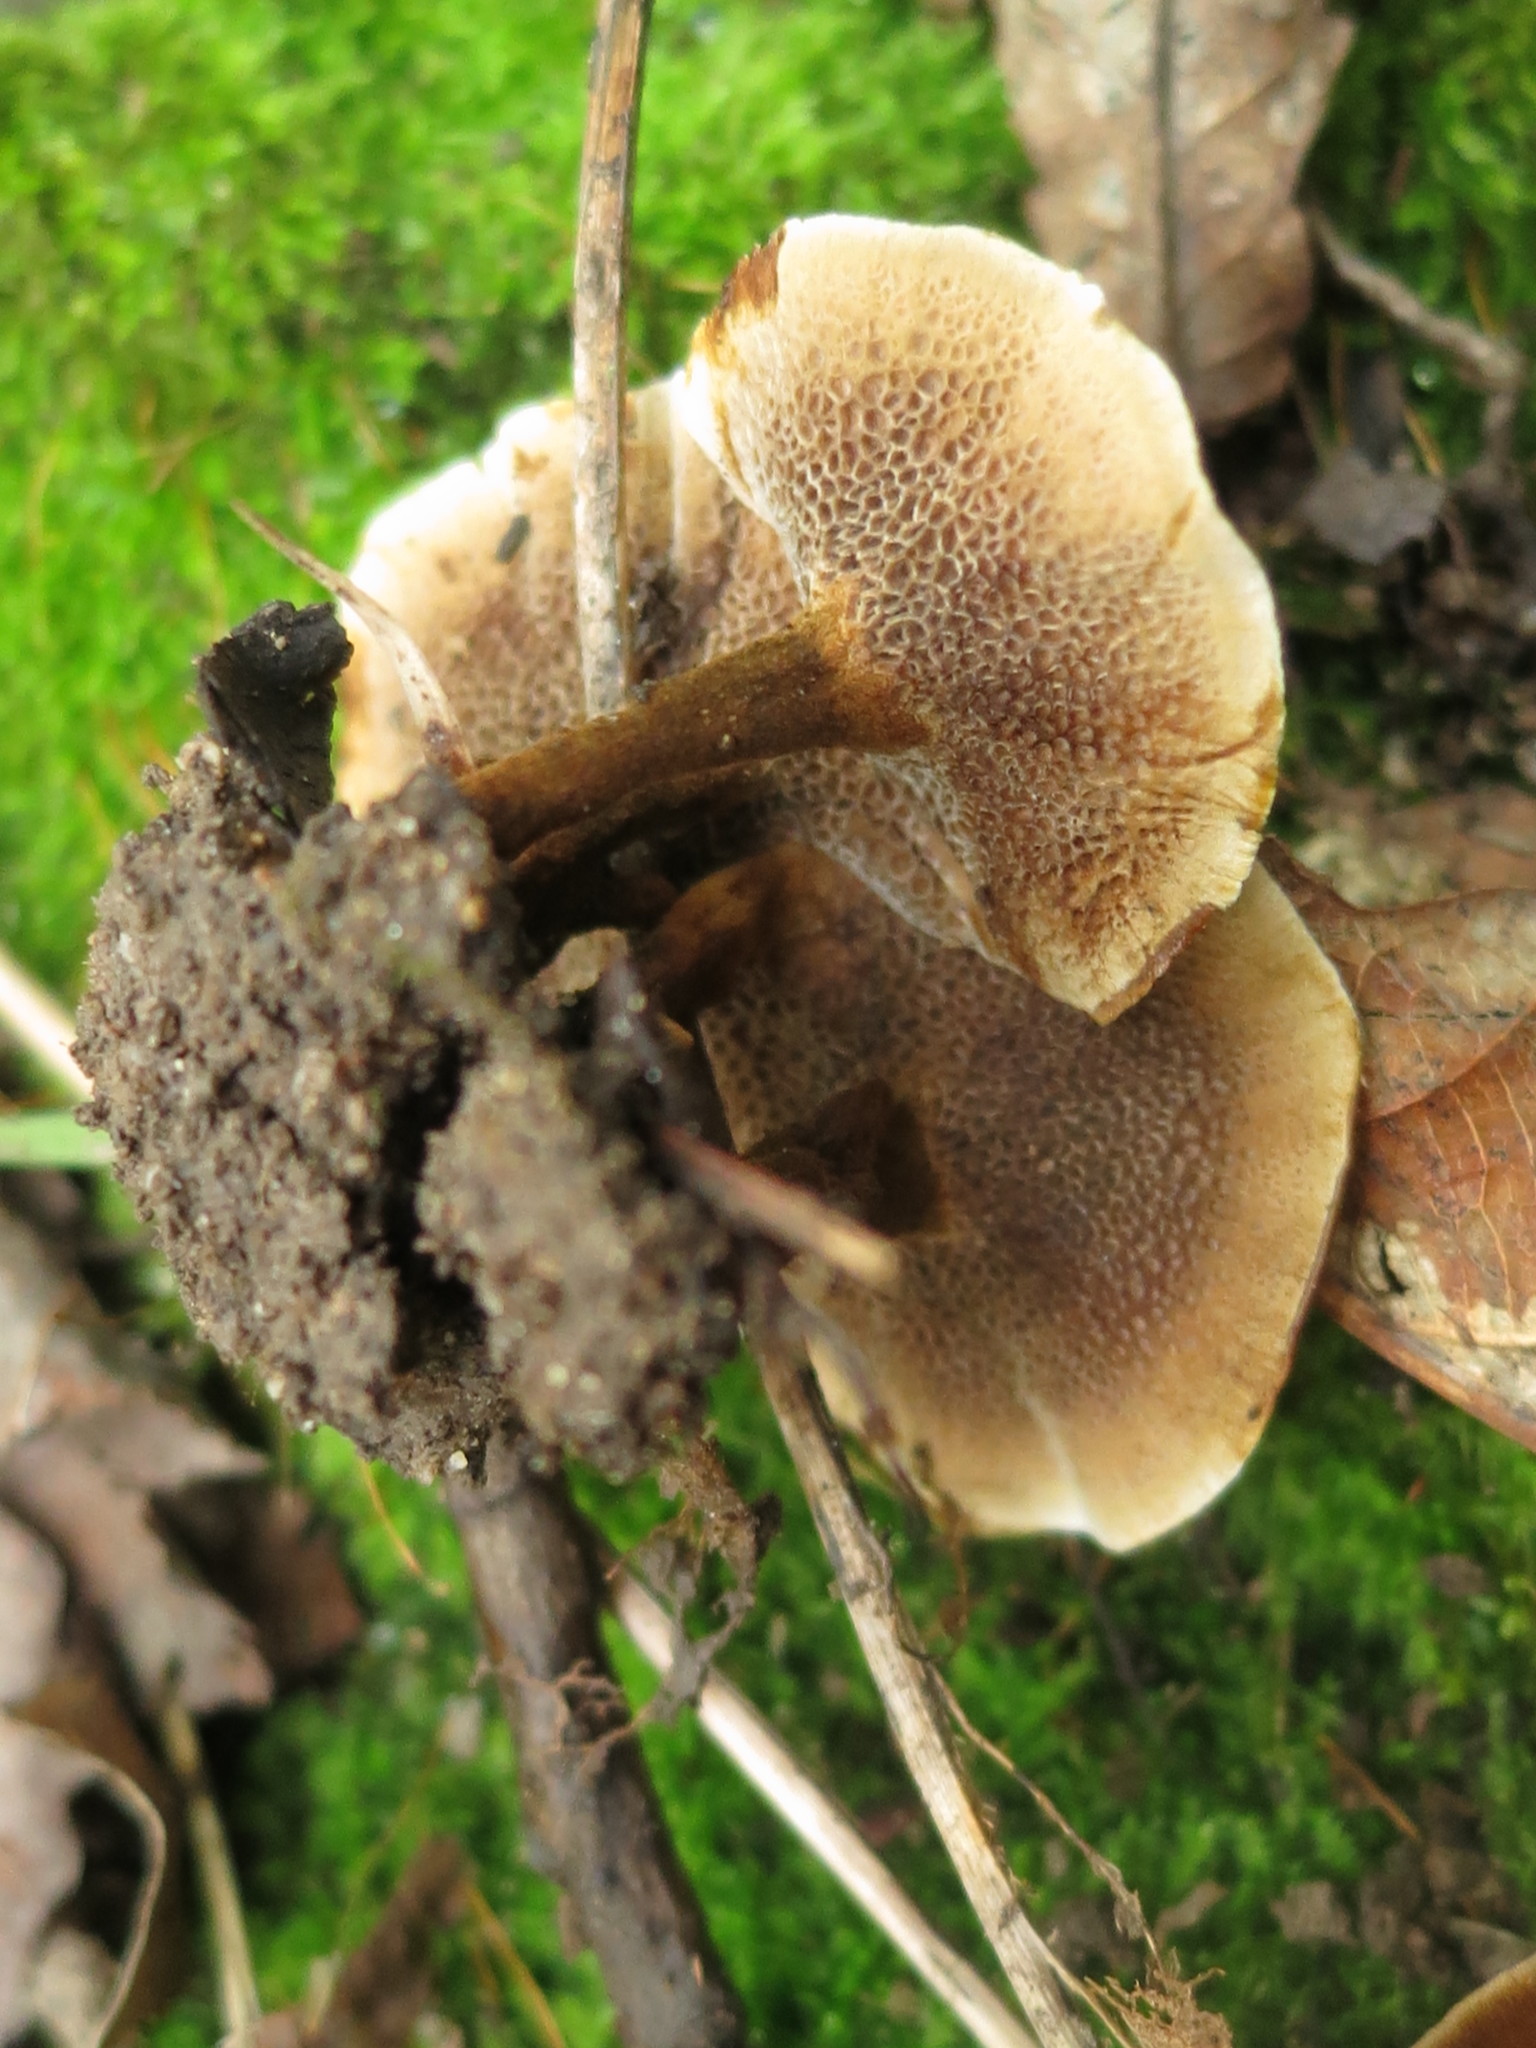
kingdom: Fungi
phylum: Basidiomycota
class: Agaricomycetes
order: Hymenochaetales
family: Hymenochaetaceae
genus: Coltricia
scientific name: Coltricia perennis
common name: Tiger's eye
